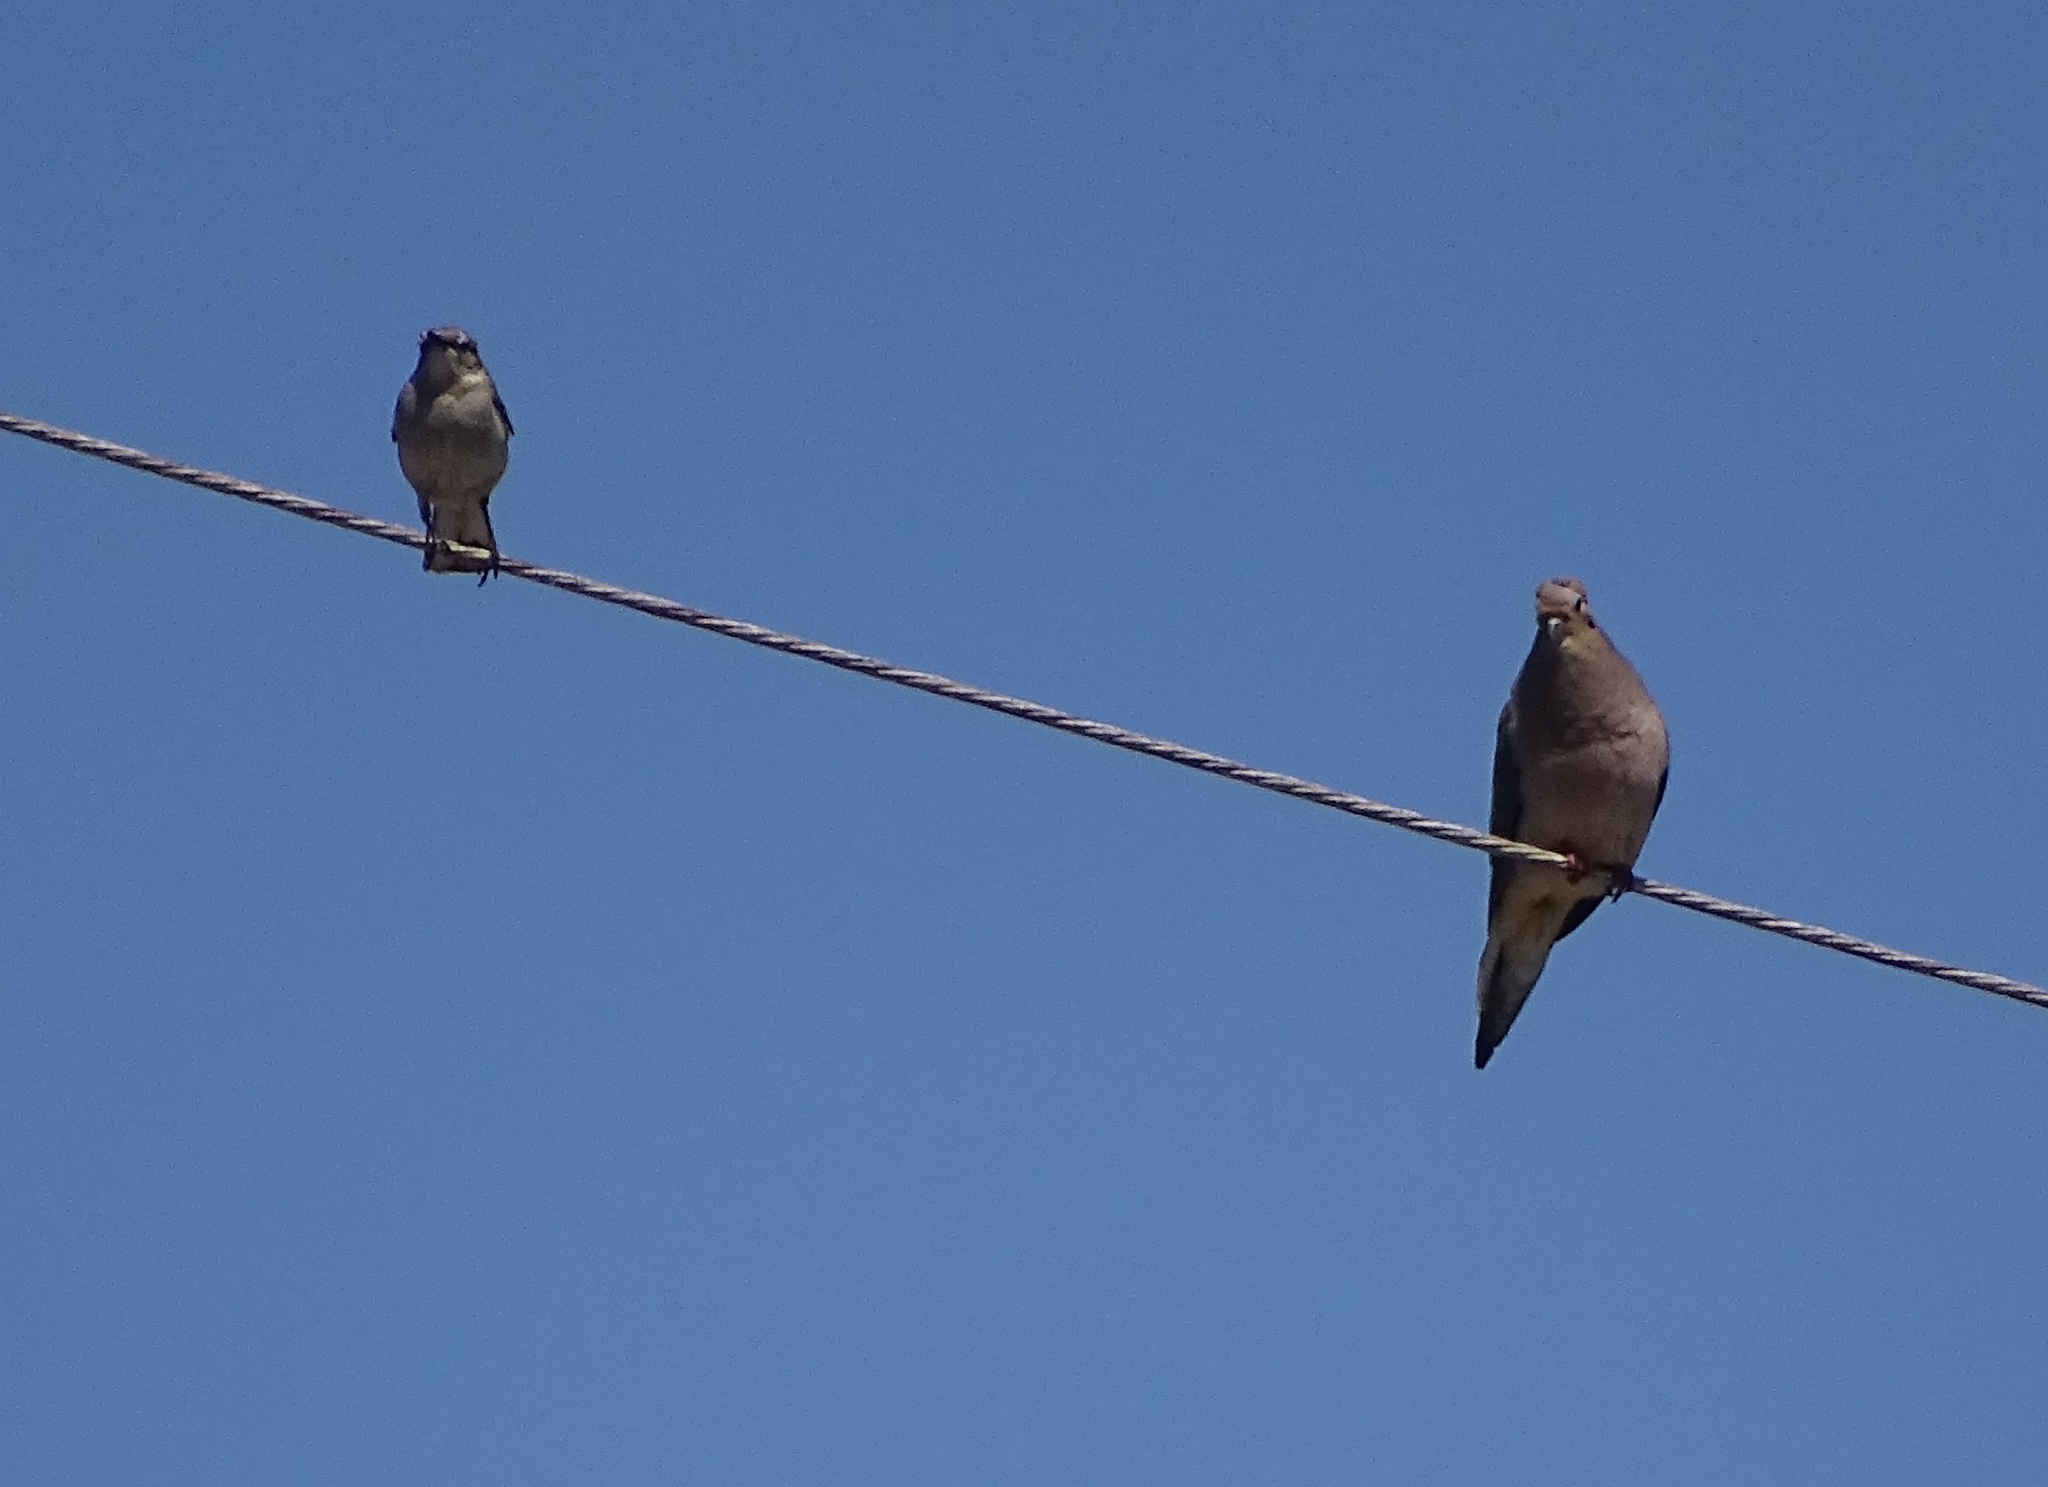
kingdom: Animalia
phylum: Chordata
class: Aves
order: Columbiformes
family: Columbidae
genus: Zenaida
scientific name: Zenaida macroura
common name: Mourning dove
